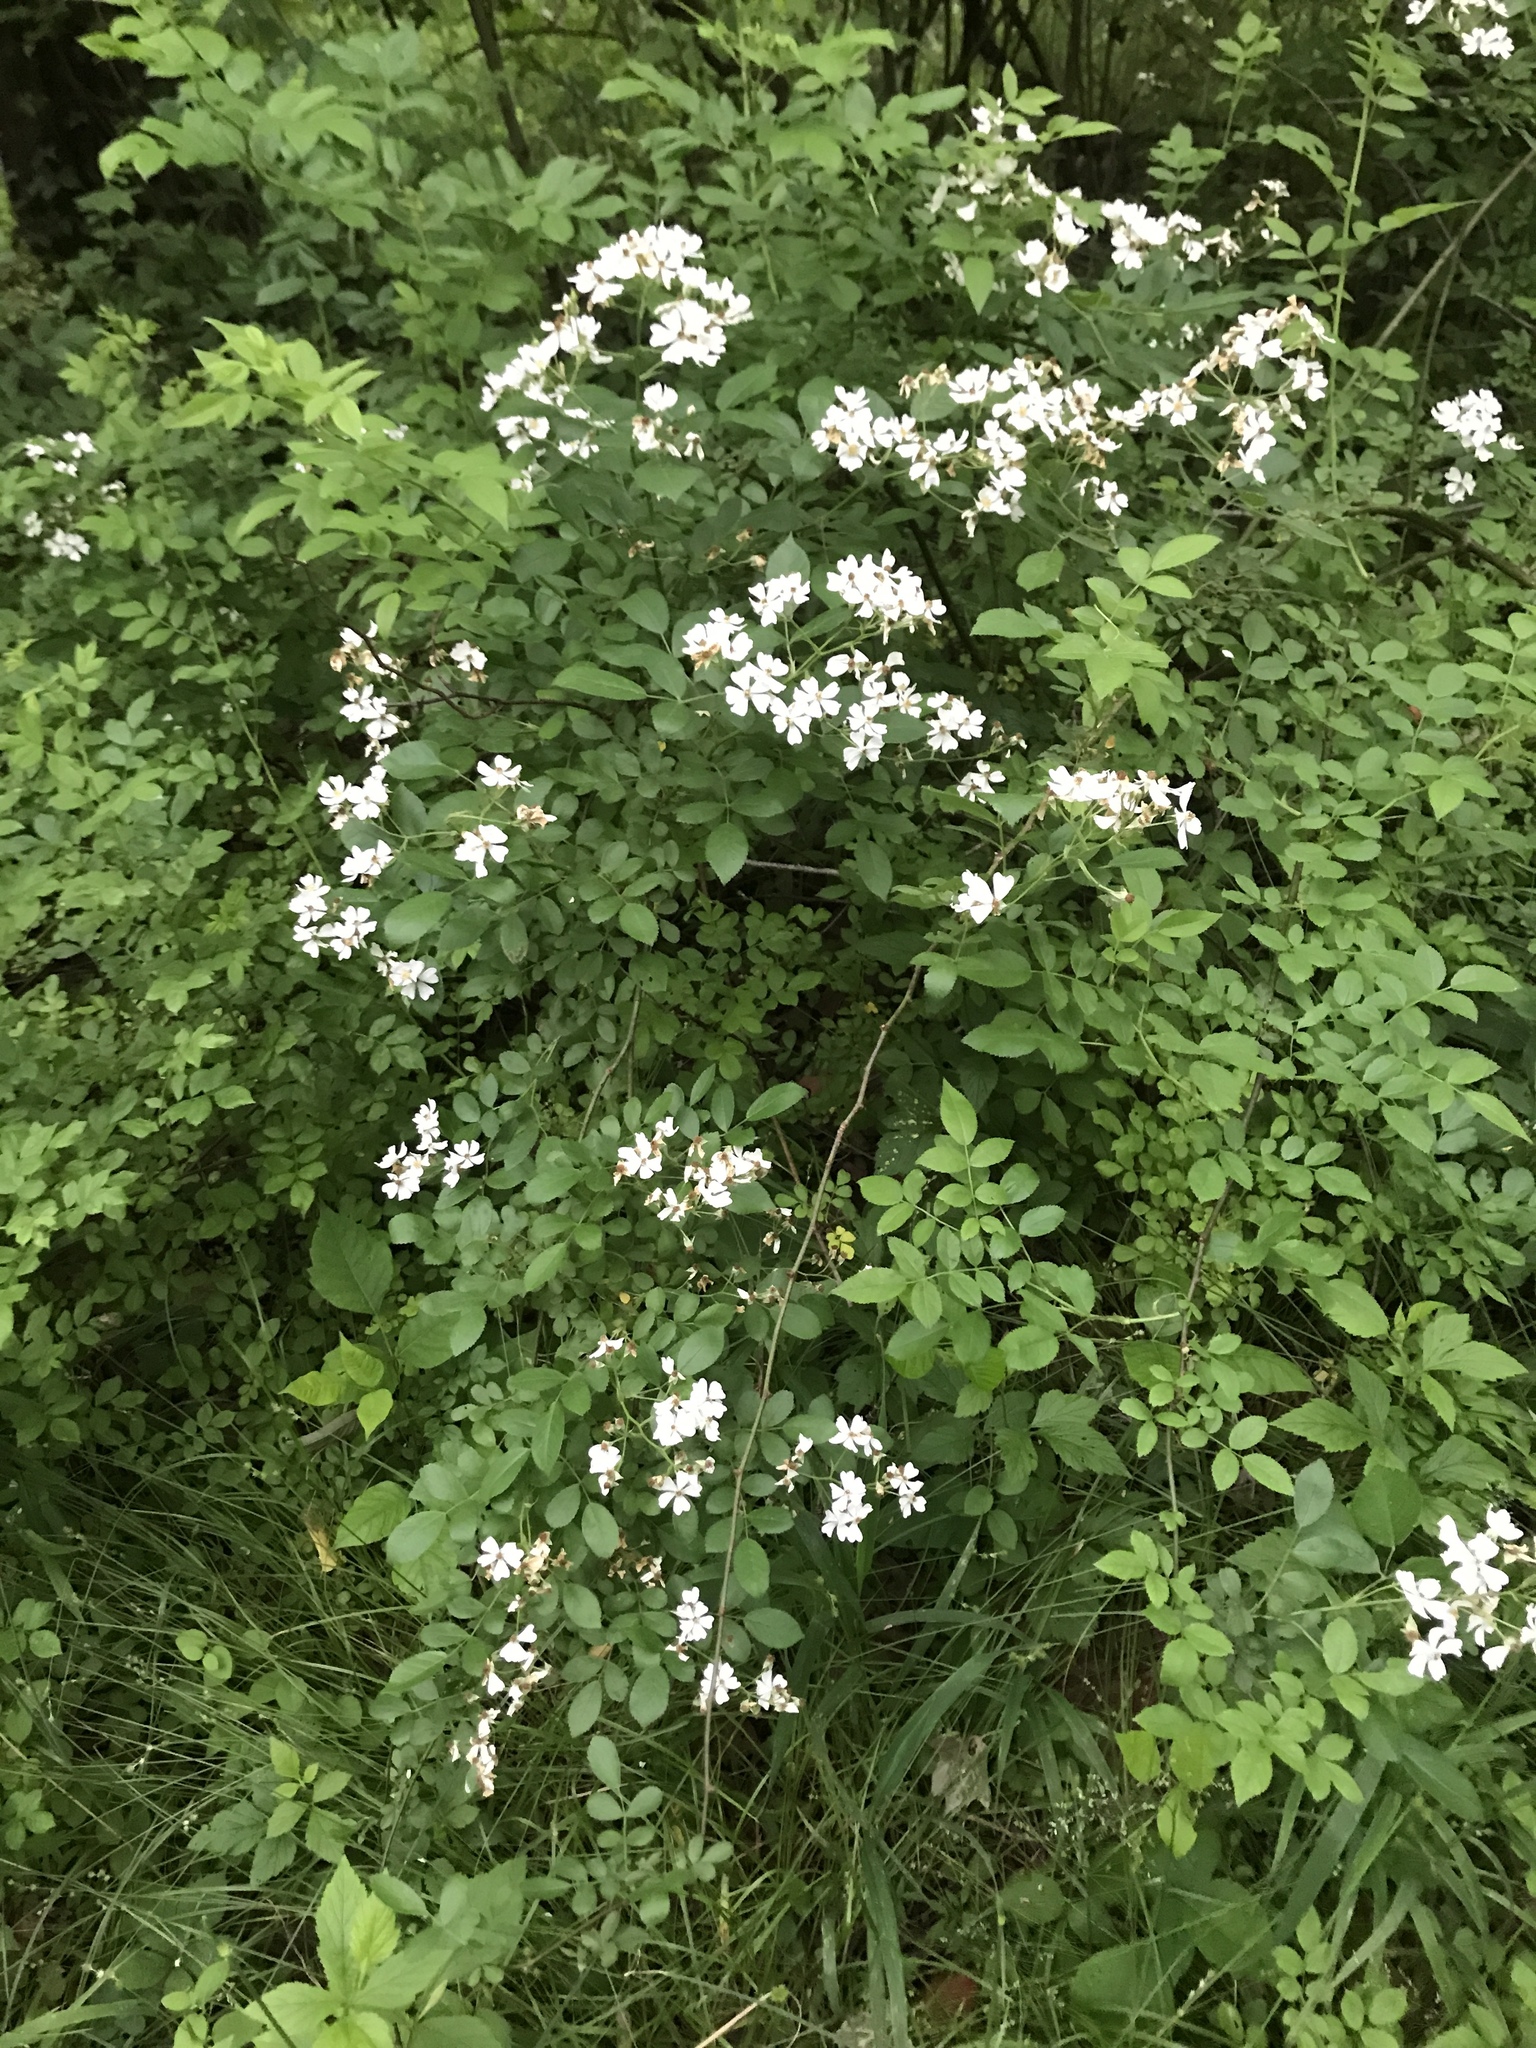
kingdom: Plantae
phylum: Tracheophyta
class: Magnoliopsida
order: Rosales
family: Rosaceae
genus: Rosa
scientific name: Rosa multiflora
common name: Multiflora rose
